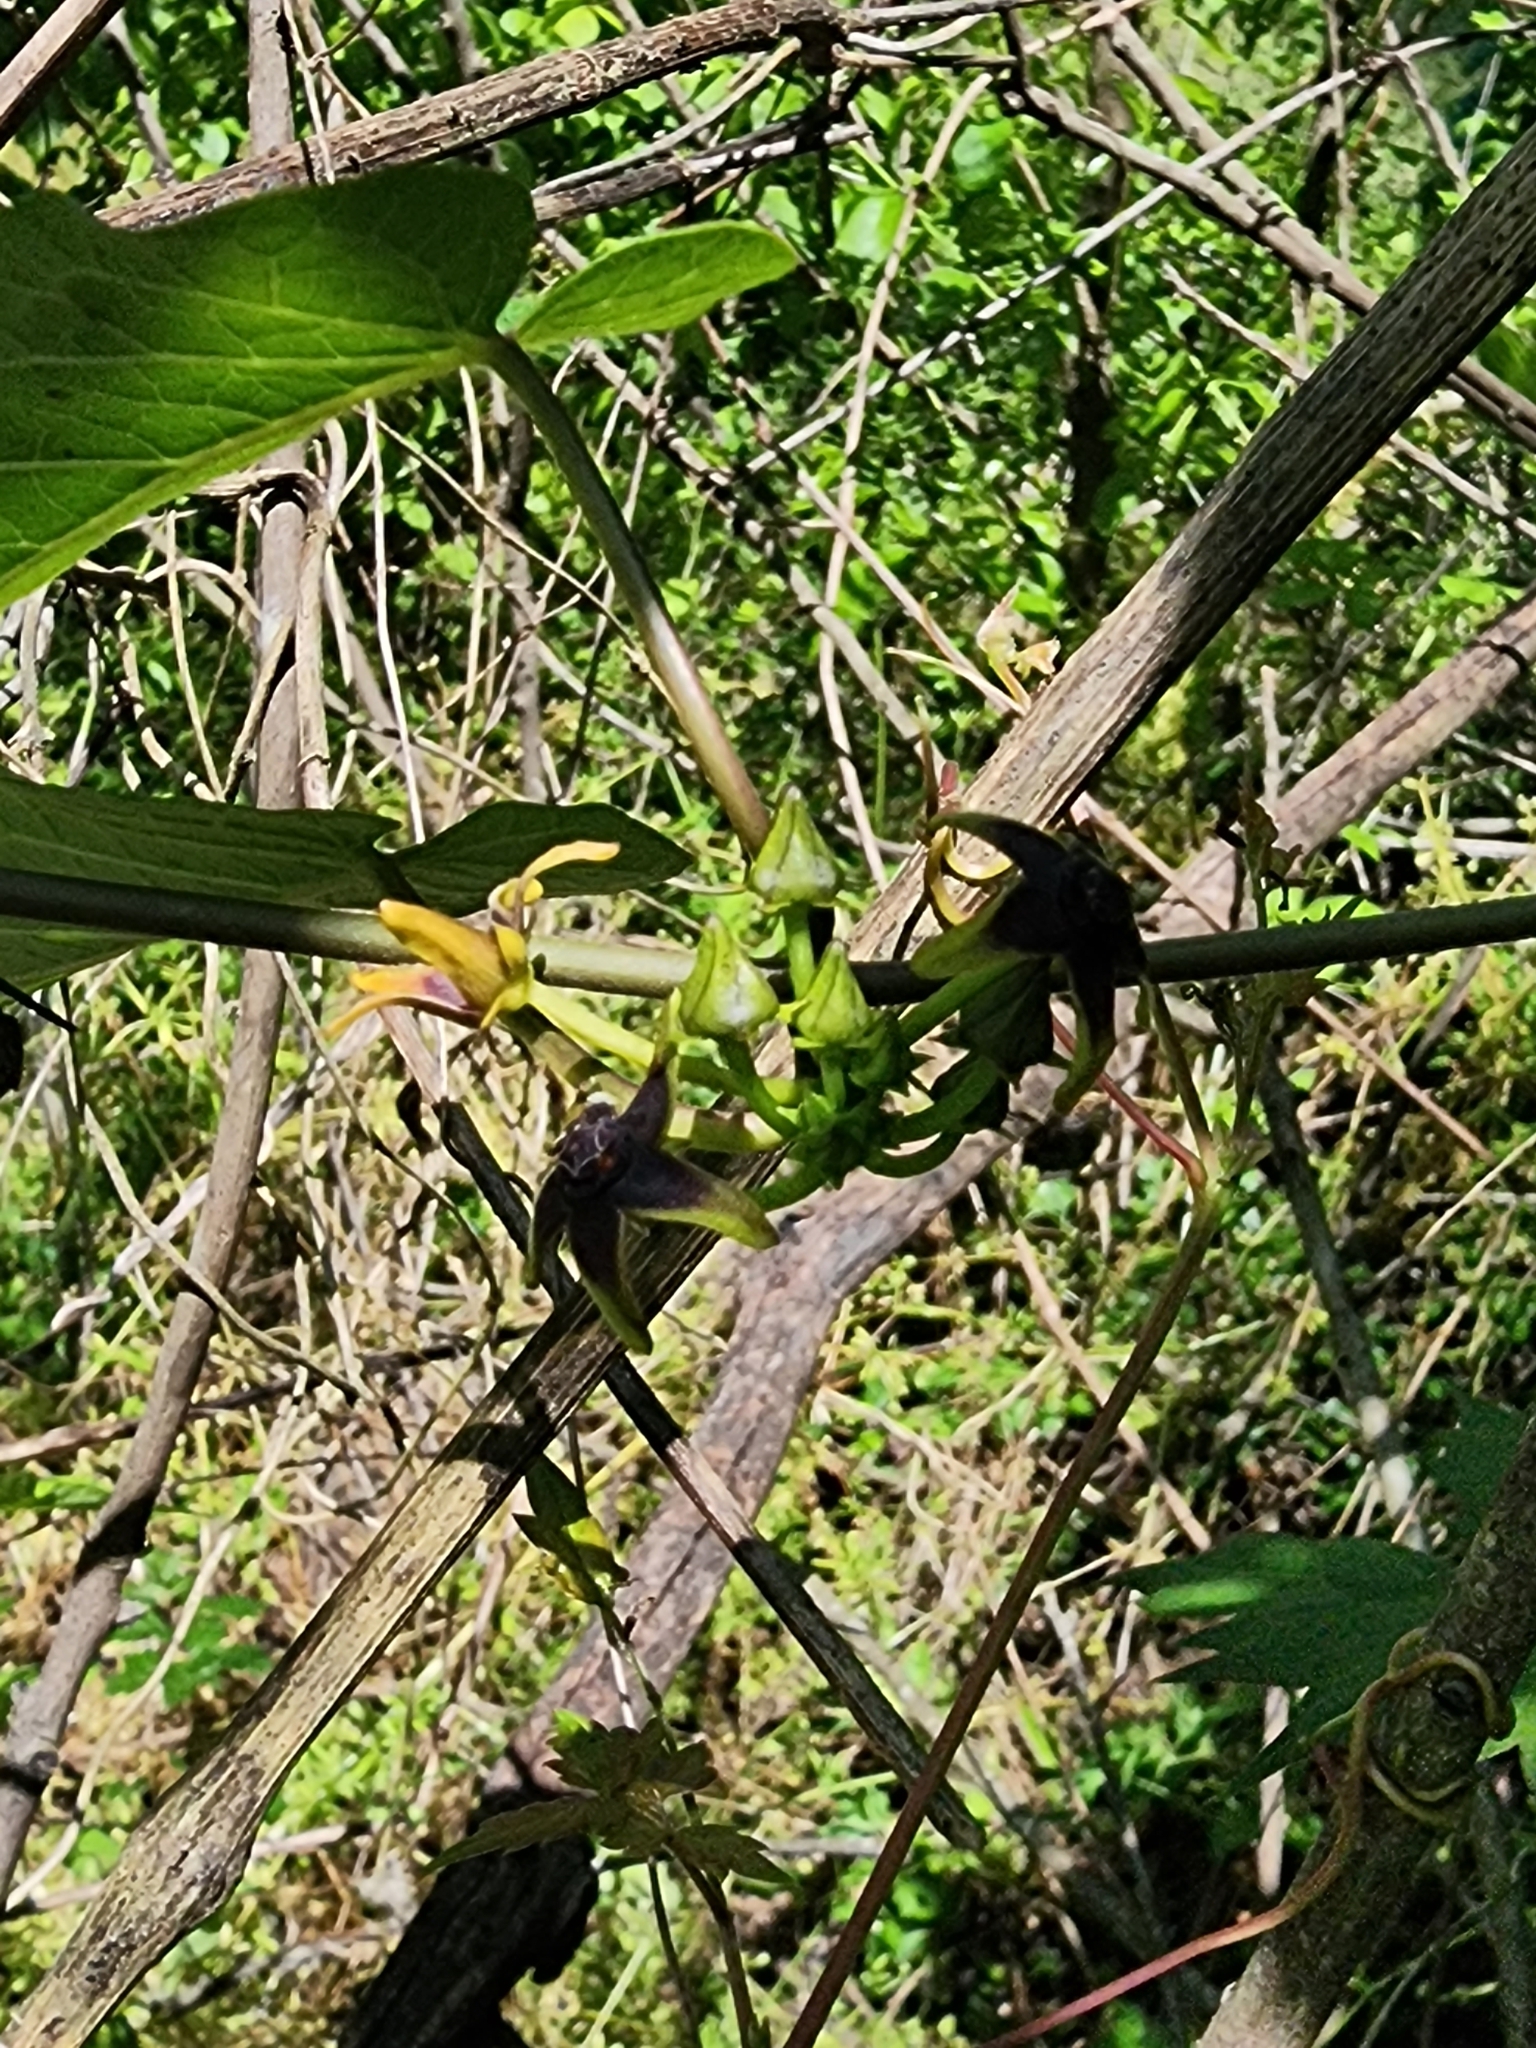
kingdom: Plantae
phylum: Tracheophyta
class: Magnoliopsida
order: Gentianales
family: Apocynaceae
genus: Gonolobus
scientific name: Gonolobus suberosus
